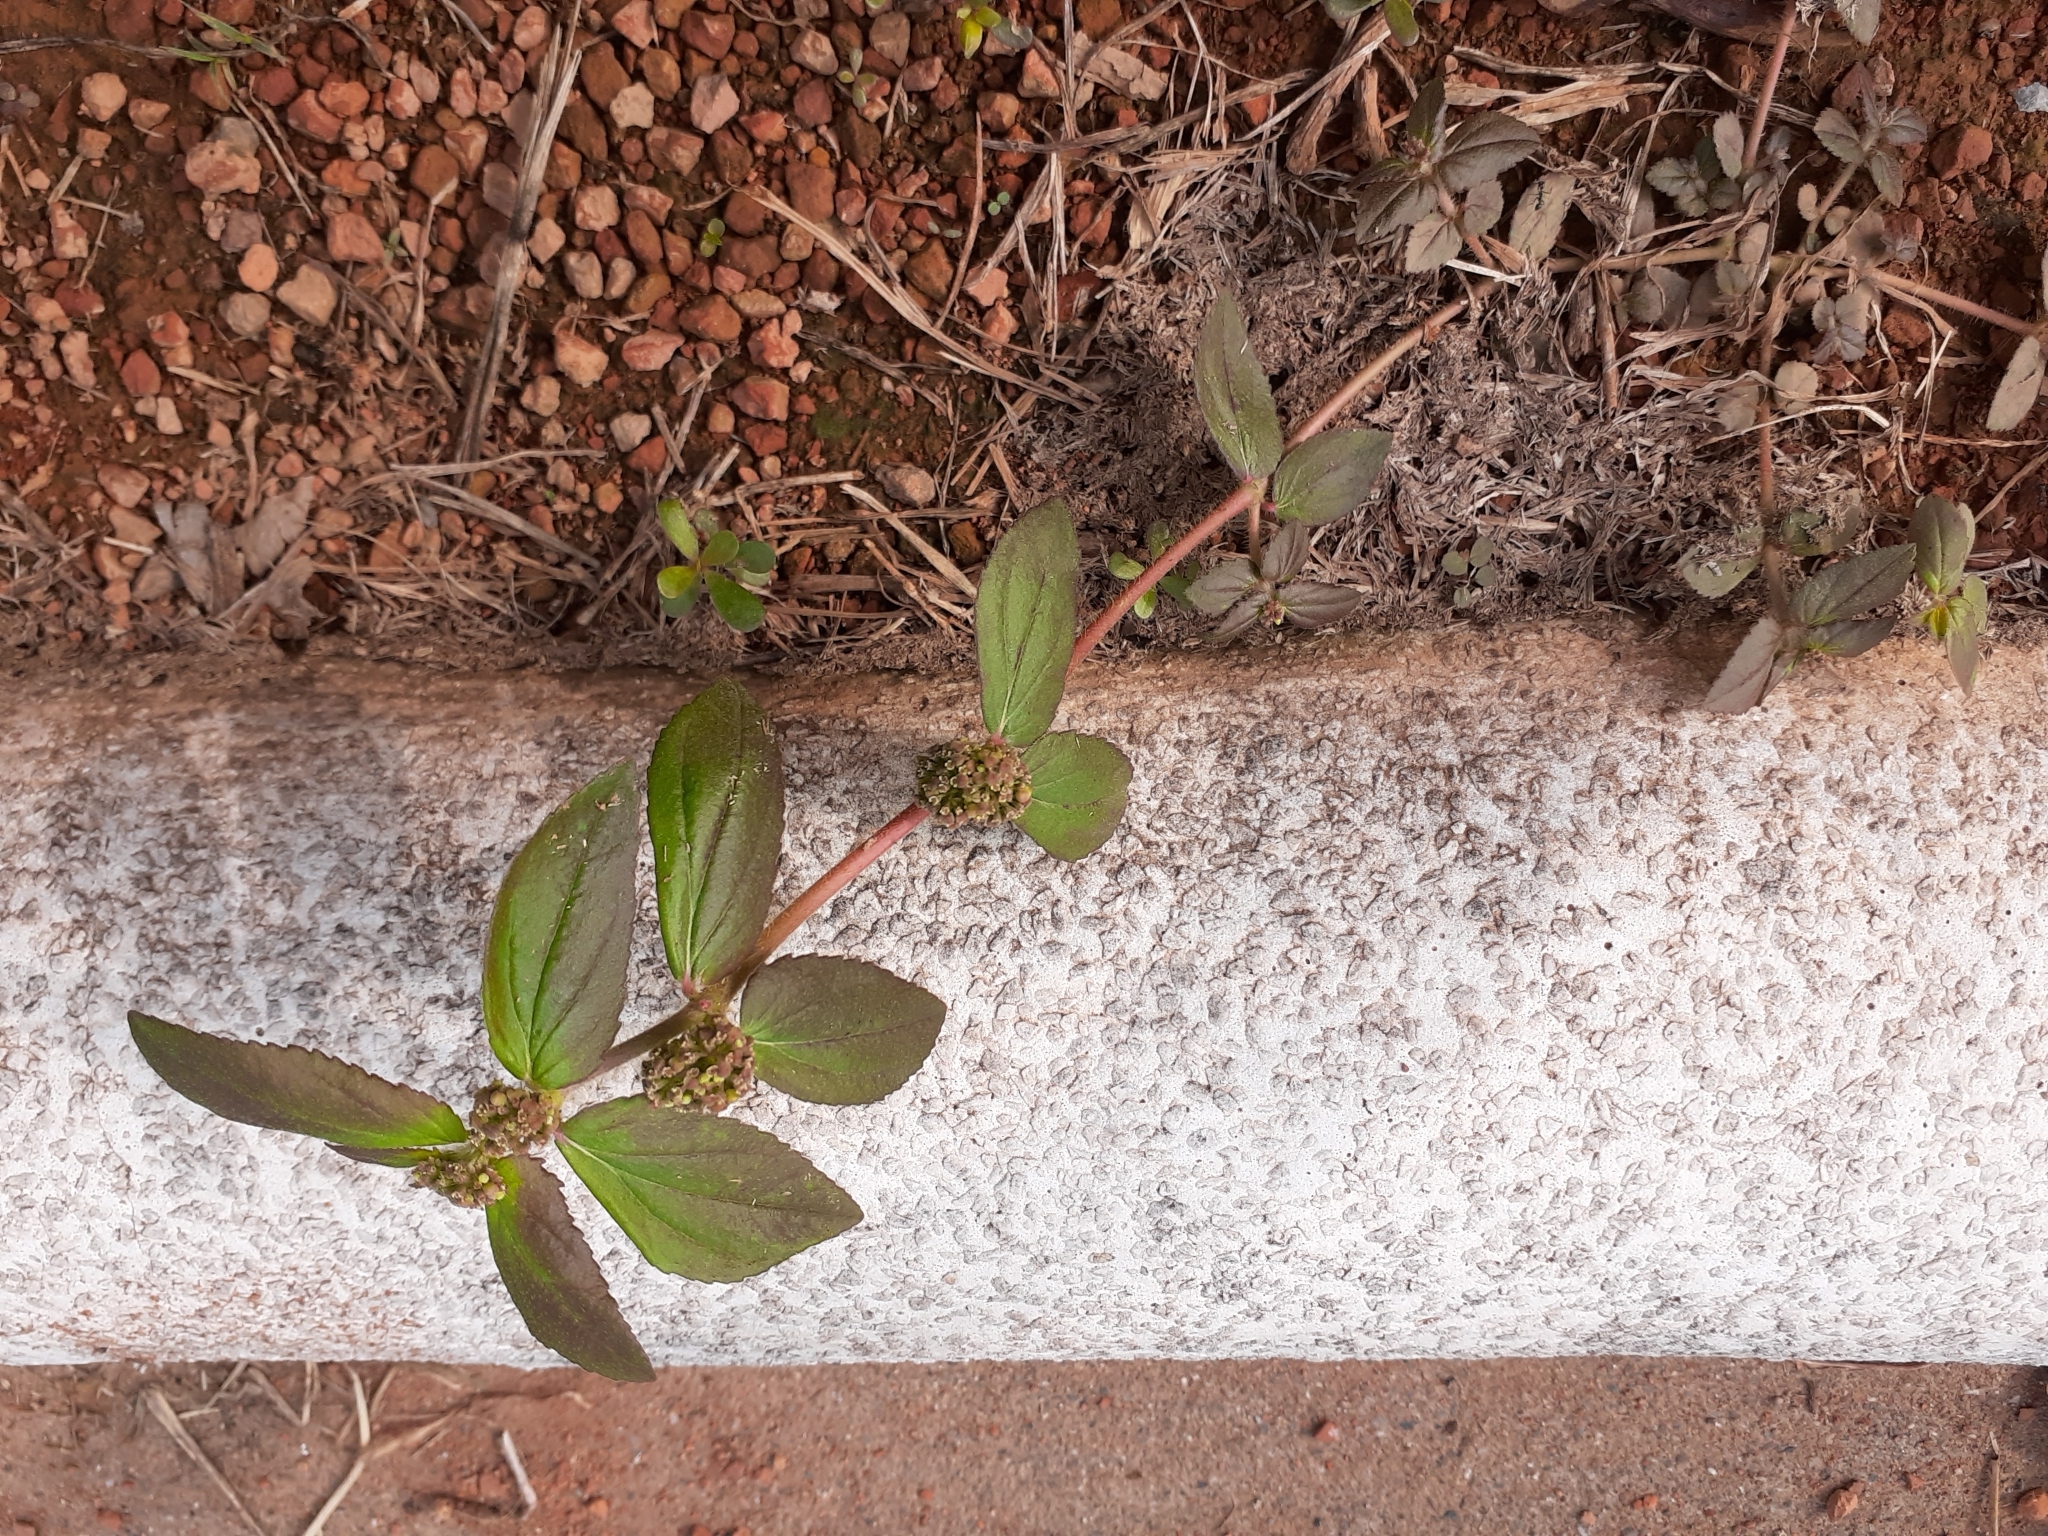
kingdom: Plantae
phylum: Tracheophyta
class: Magnoliopsida
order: Malpighiales
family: Euphorbiaceae
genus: Euphorbia
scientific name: Euphorbia hirta
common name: Pillpod sandmat
